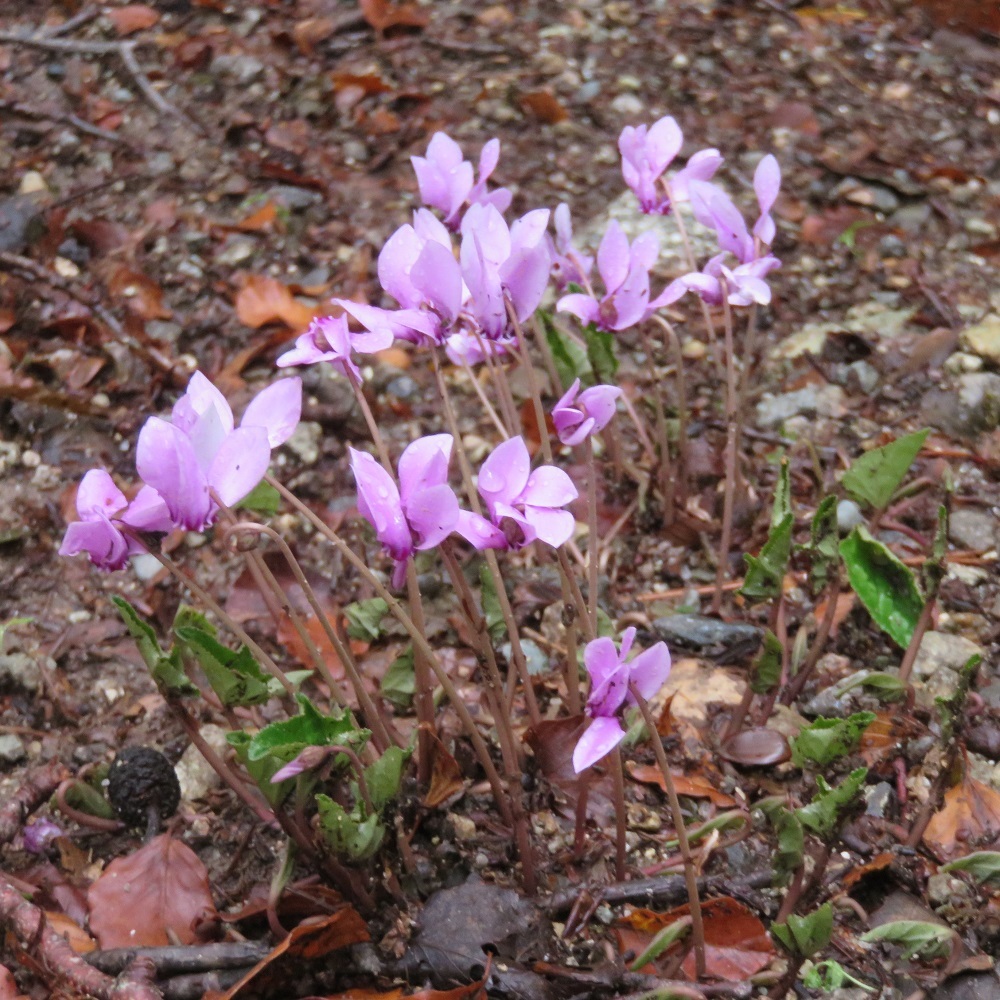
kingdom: Plantae
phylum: Tracheophyta
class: Magnoliopsida
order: Ericales
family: Primulaceae
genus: Cyclamen
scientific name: Cyclamen hederifolium
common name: Sowbread
